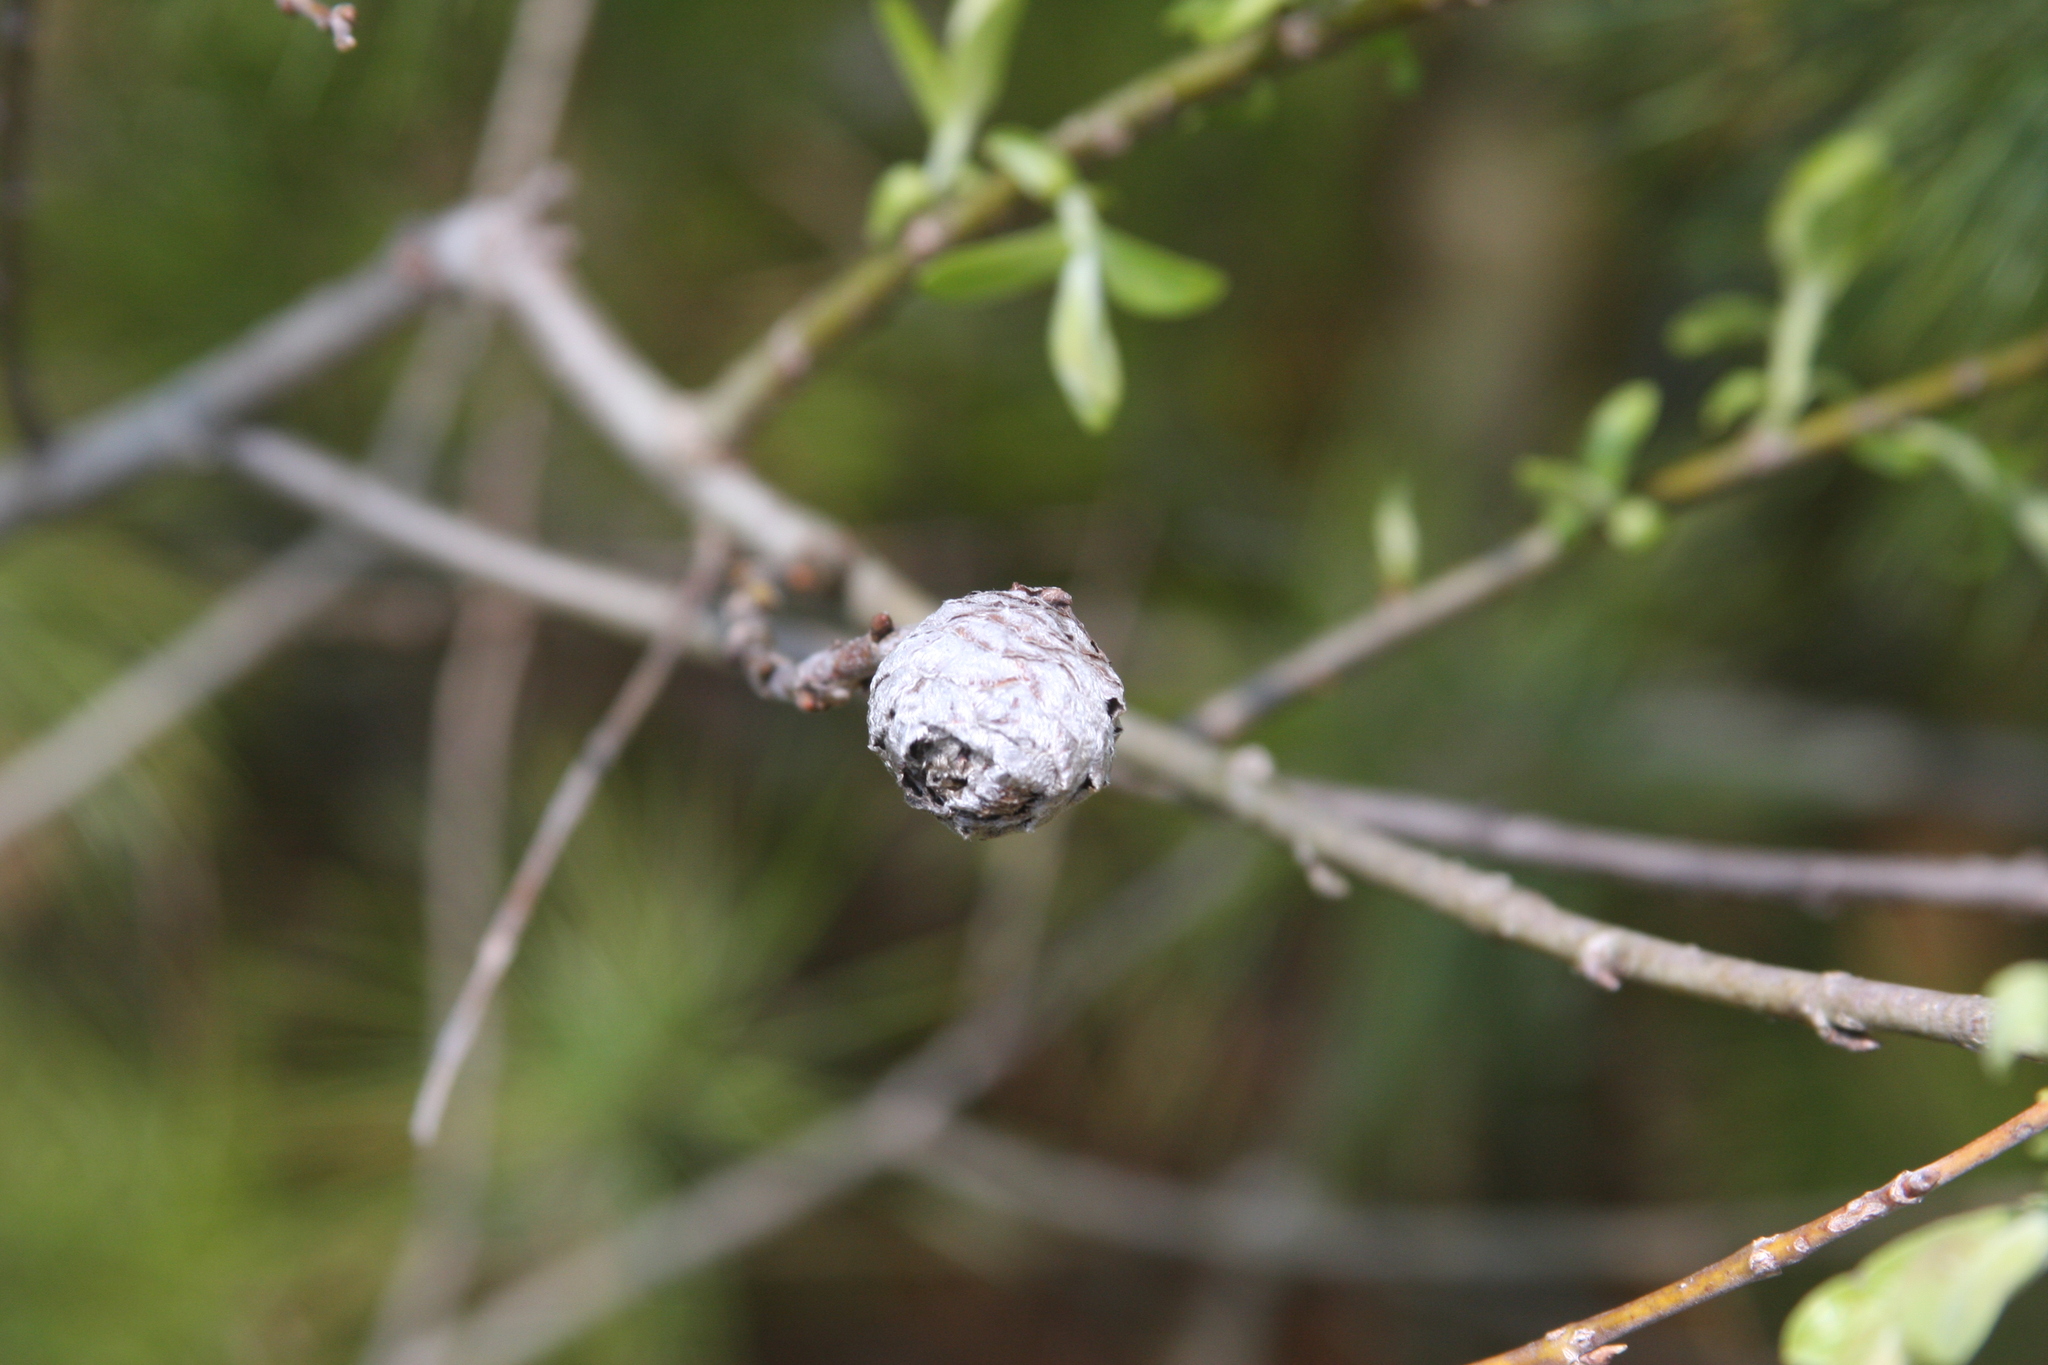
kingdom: Animalia
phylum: Arthropoda
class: Insecta
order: Diptera
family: Cecidomyiidae
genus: Rabdophaga
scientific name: Rabdophaga strobiloides
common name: Willow pinecone gall midge
